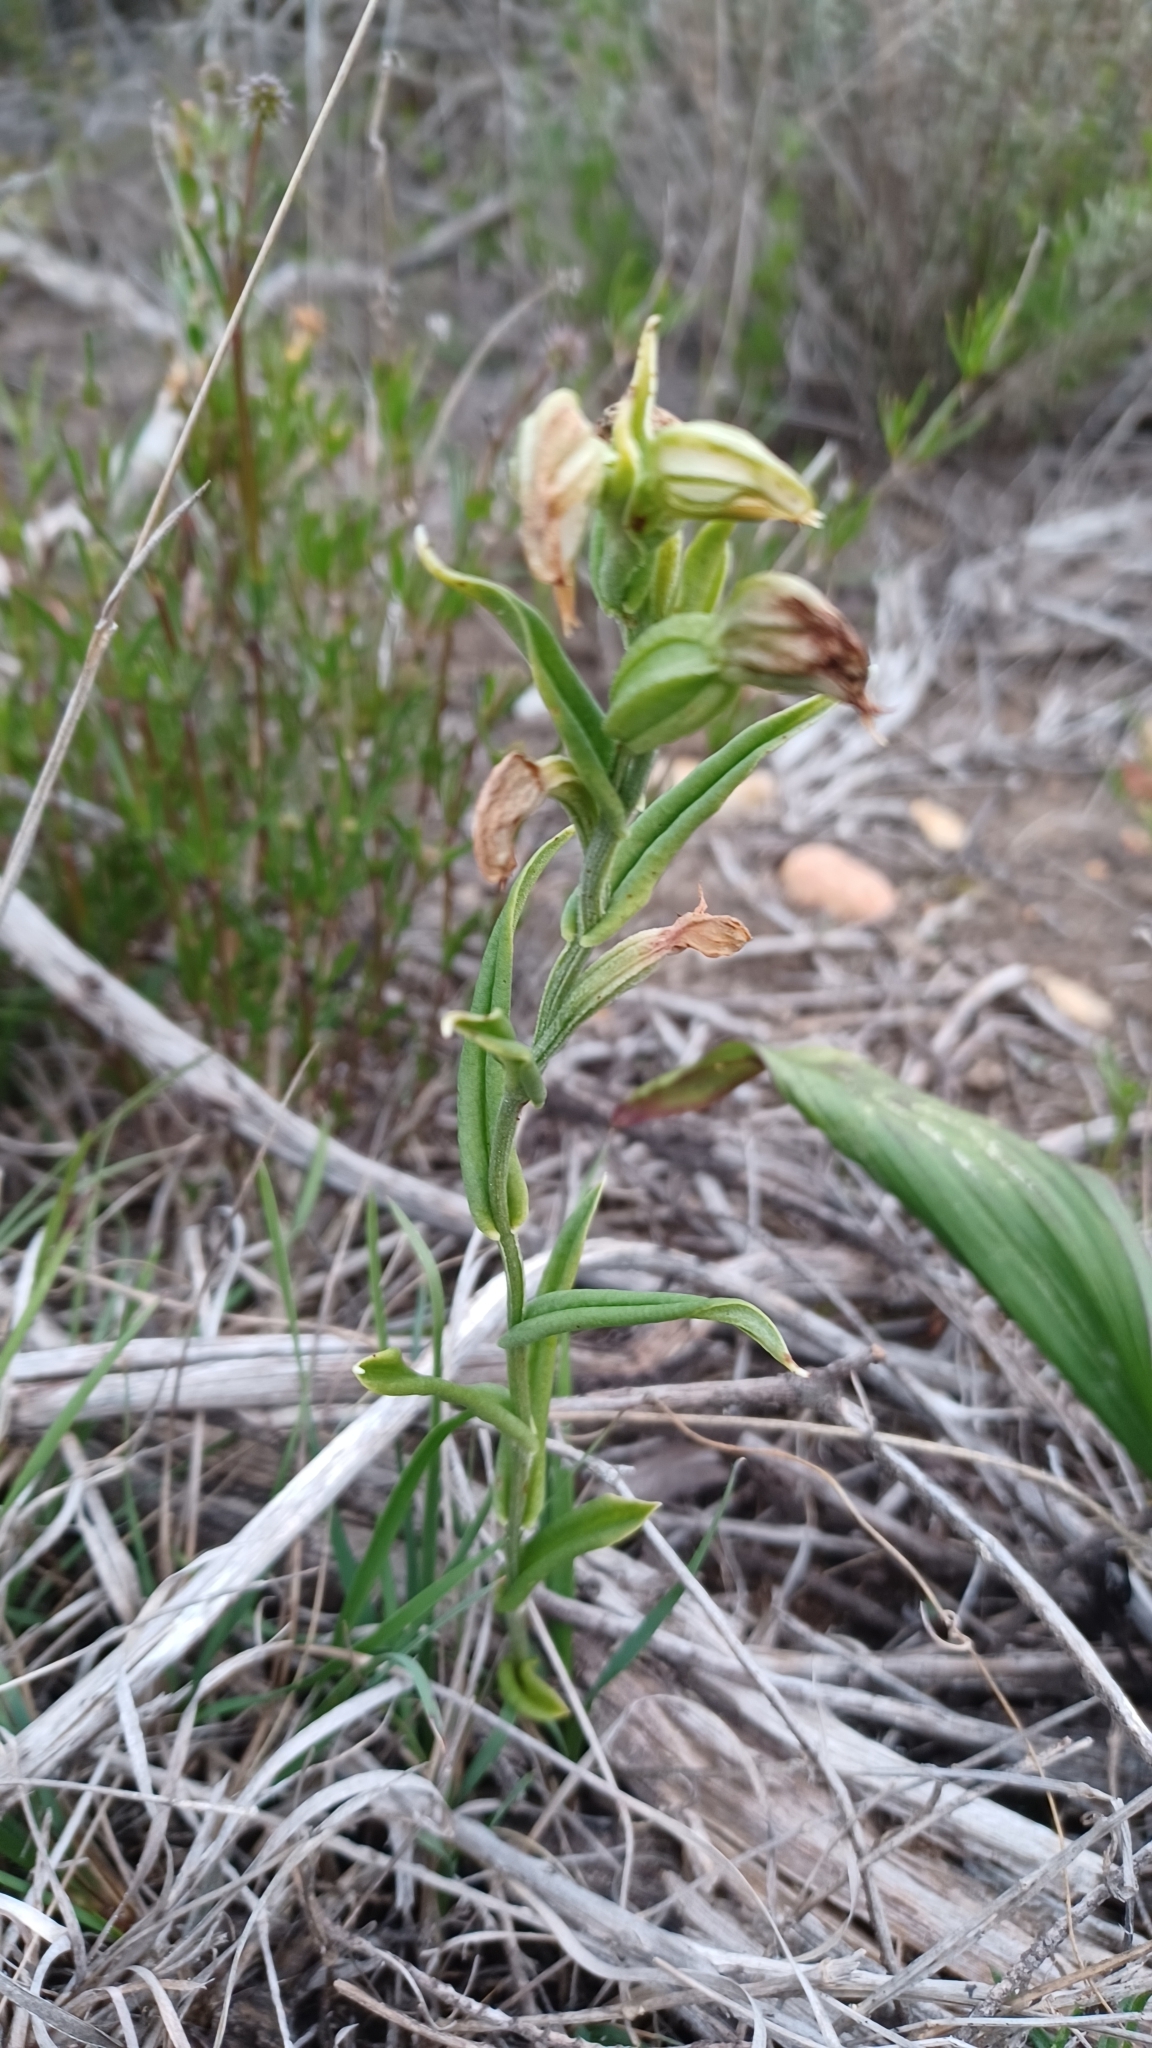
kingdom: Plantae
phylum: Tracheophyta
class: Liliopsida
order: Asparagales
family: Orchidaceae
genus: Pterostylis
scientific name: Pterostylis vittata
